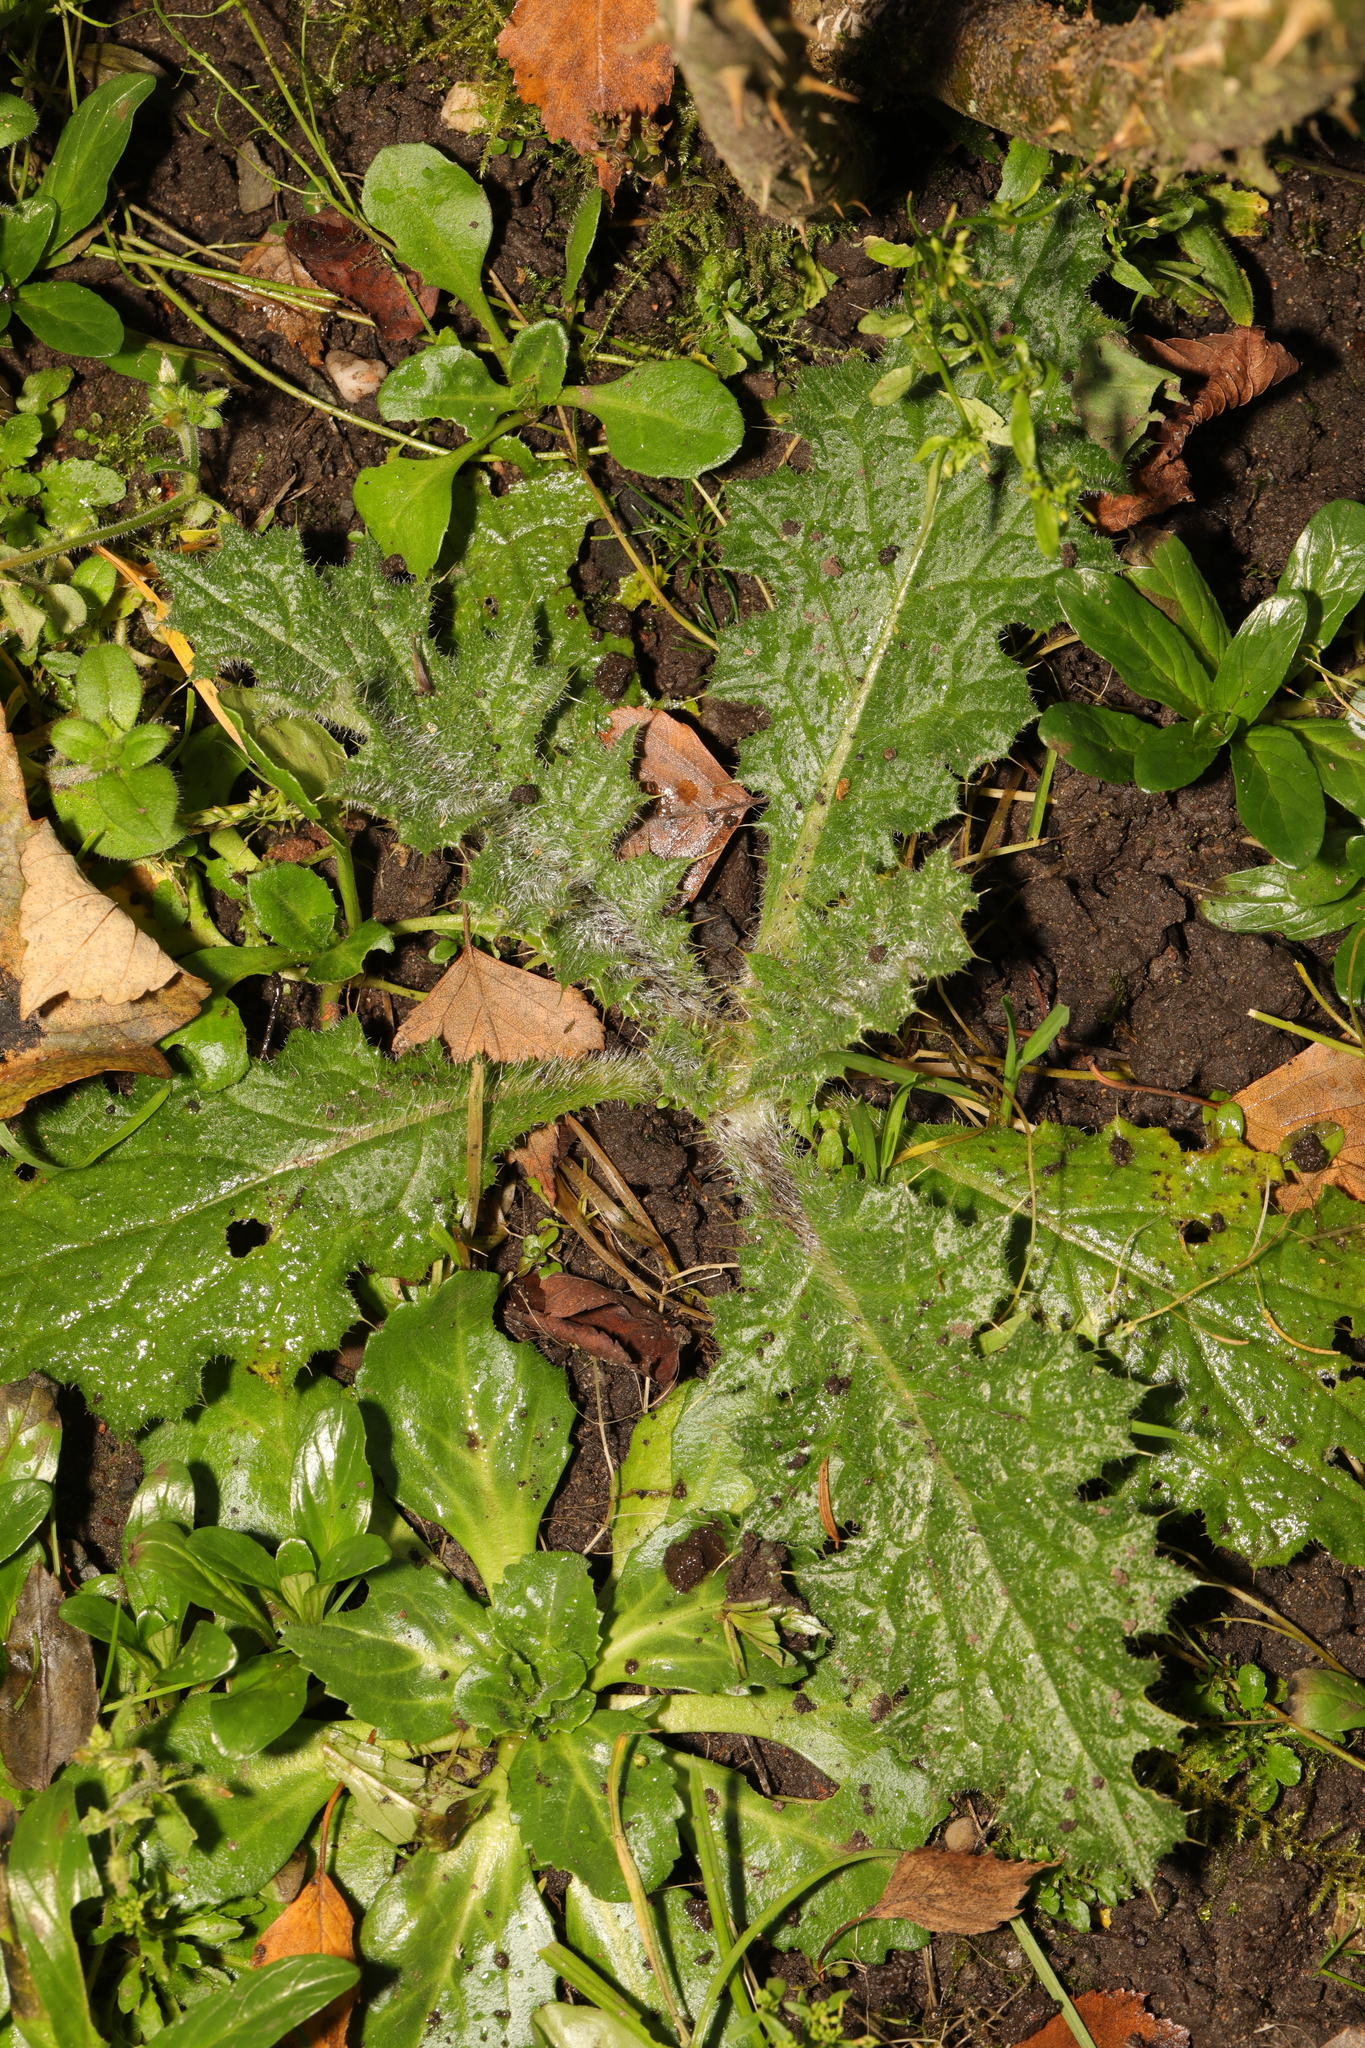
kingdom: Plantae
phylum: Tracheophyta
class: Magnoliopsida
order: Asterales
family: Asteraceae
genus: Cirsium
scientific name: Cirsium vulgare
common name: Bull thistle
